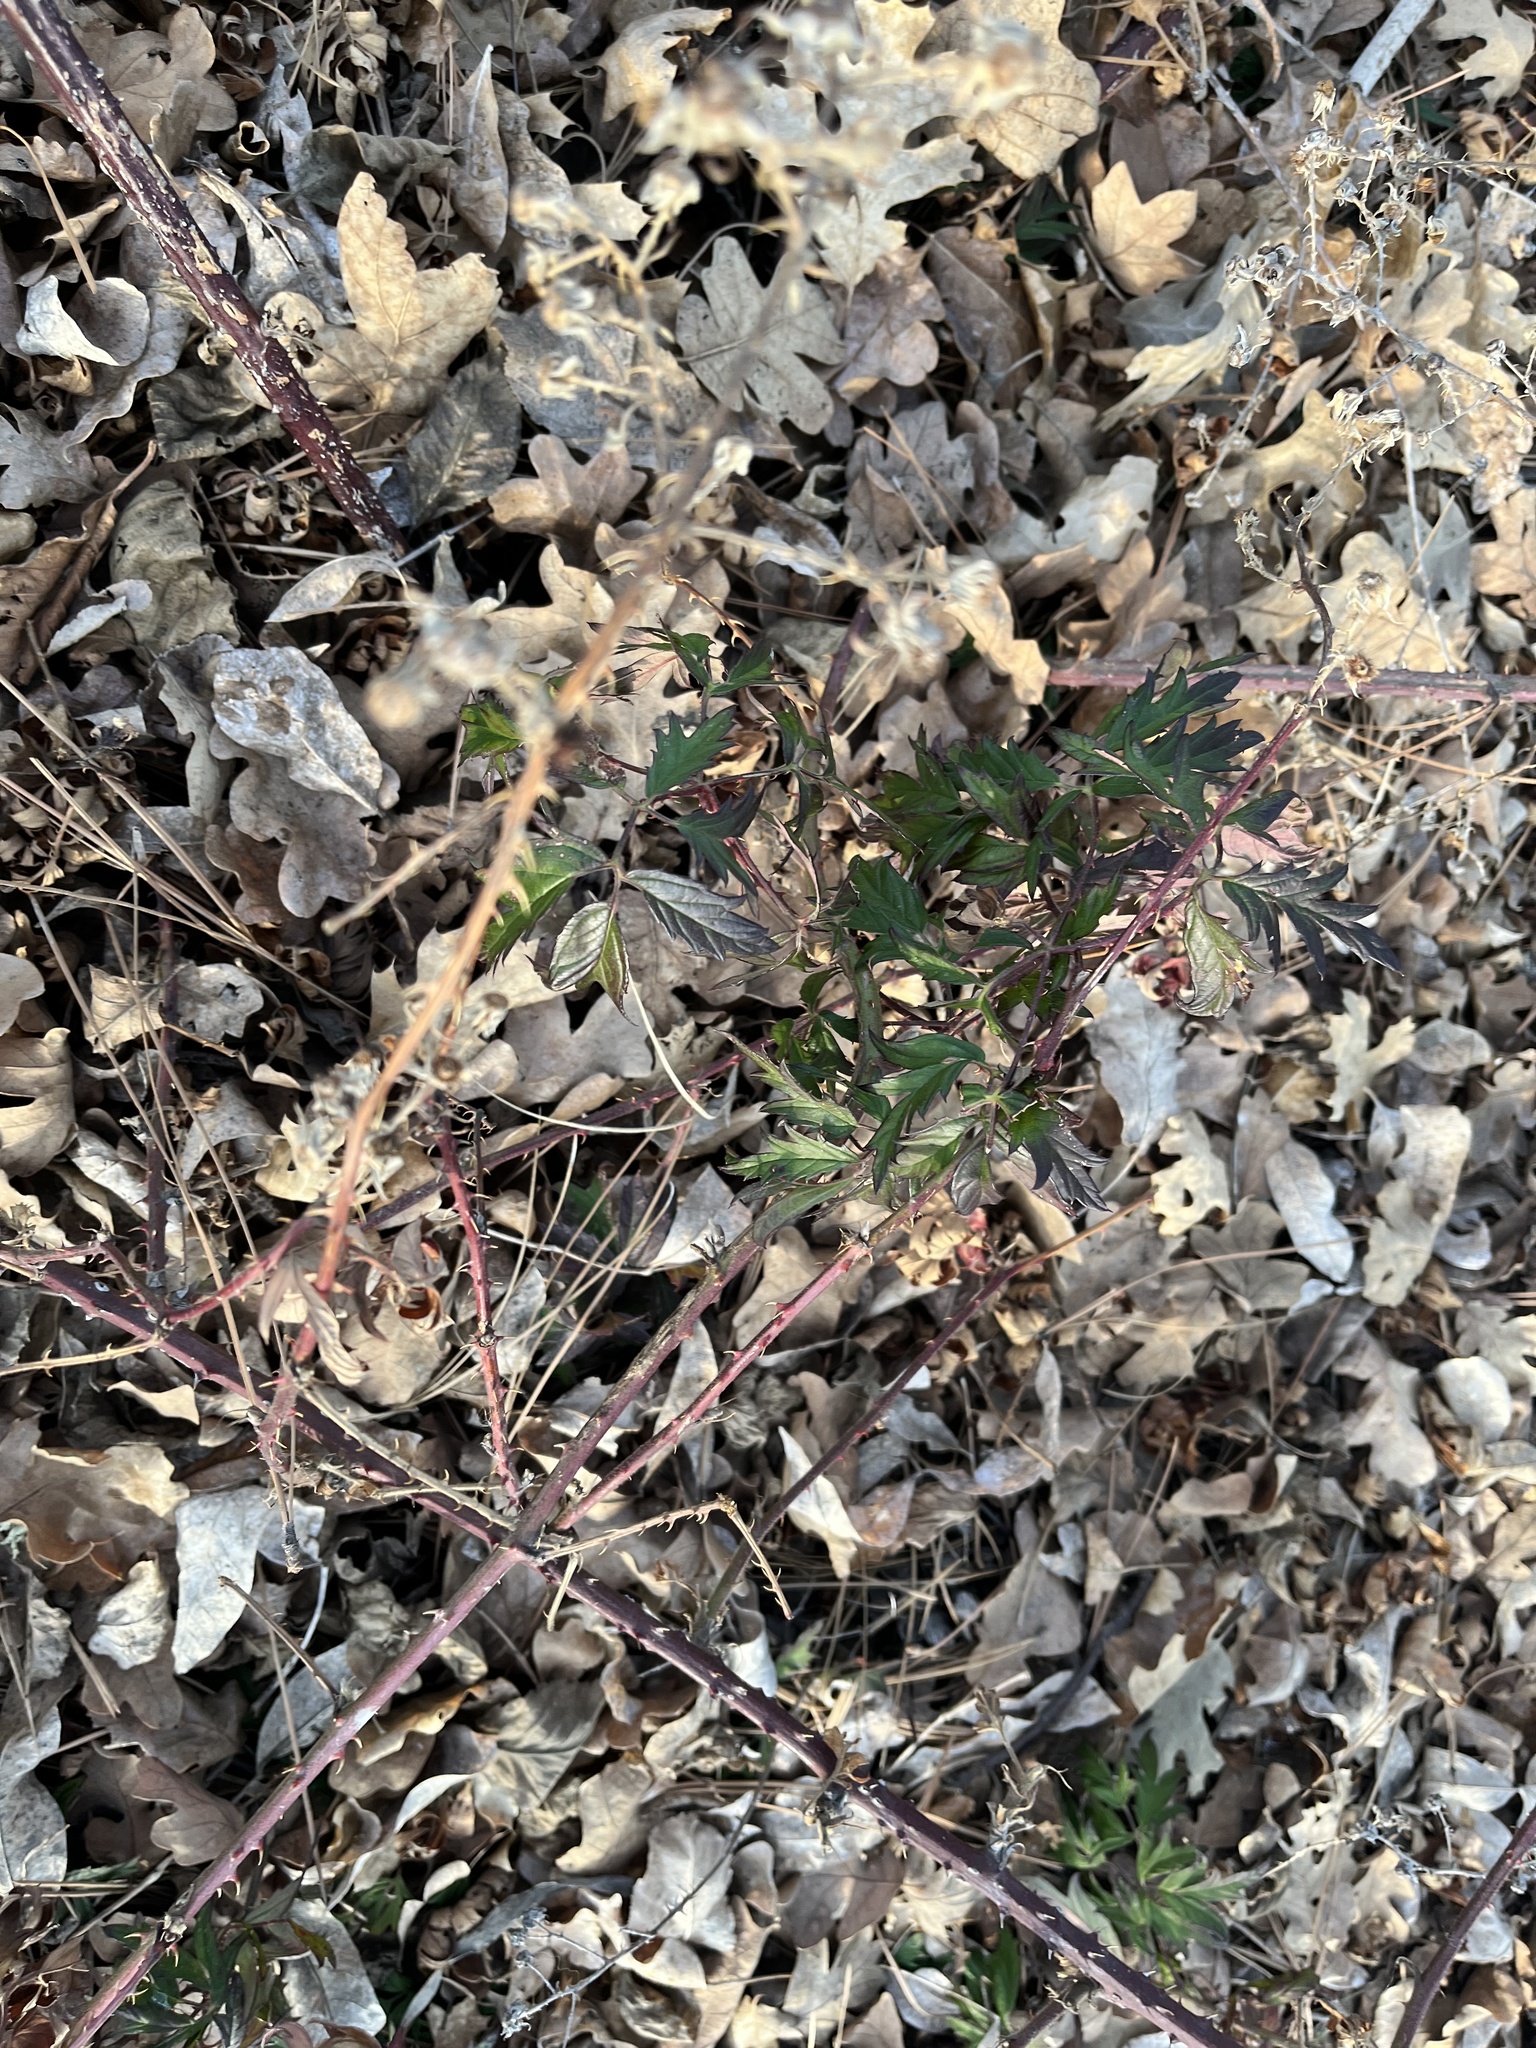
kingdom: Plantae
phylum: Tracheophyta
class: Magnoliopsida
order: Rosales
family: Rosaceae
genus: Rubus
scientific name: Rubus laciniatus
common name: Evergreen blackberry
